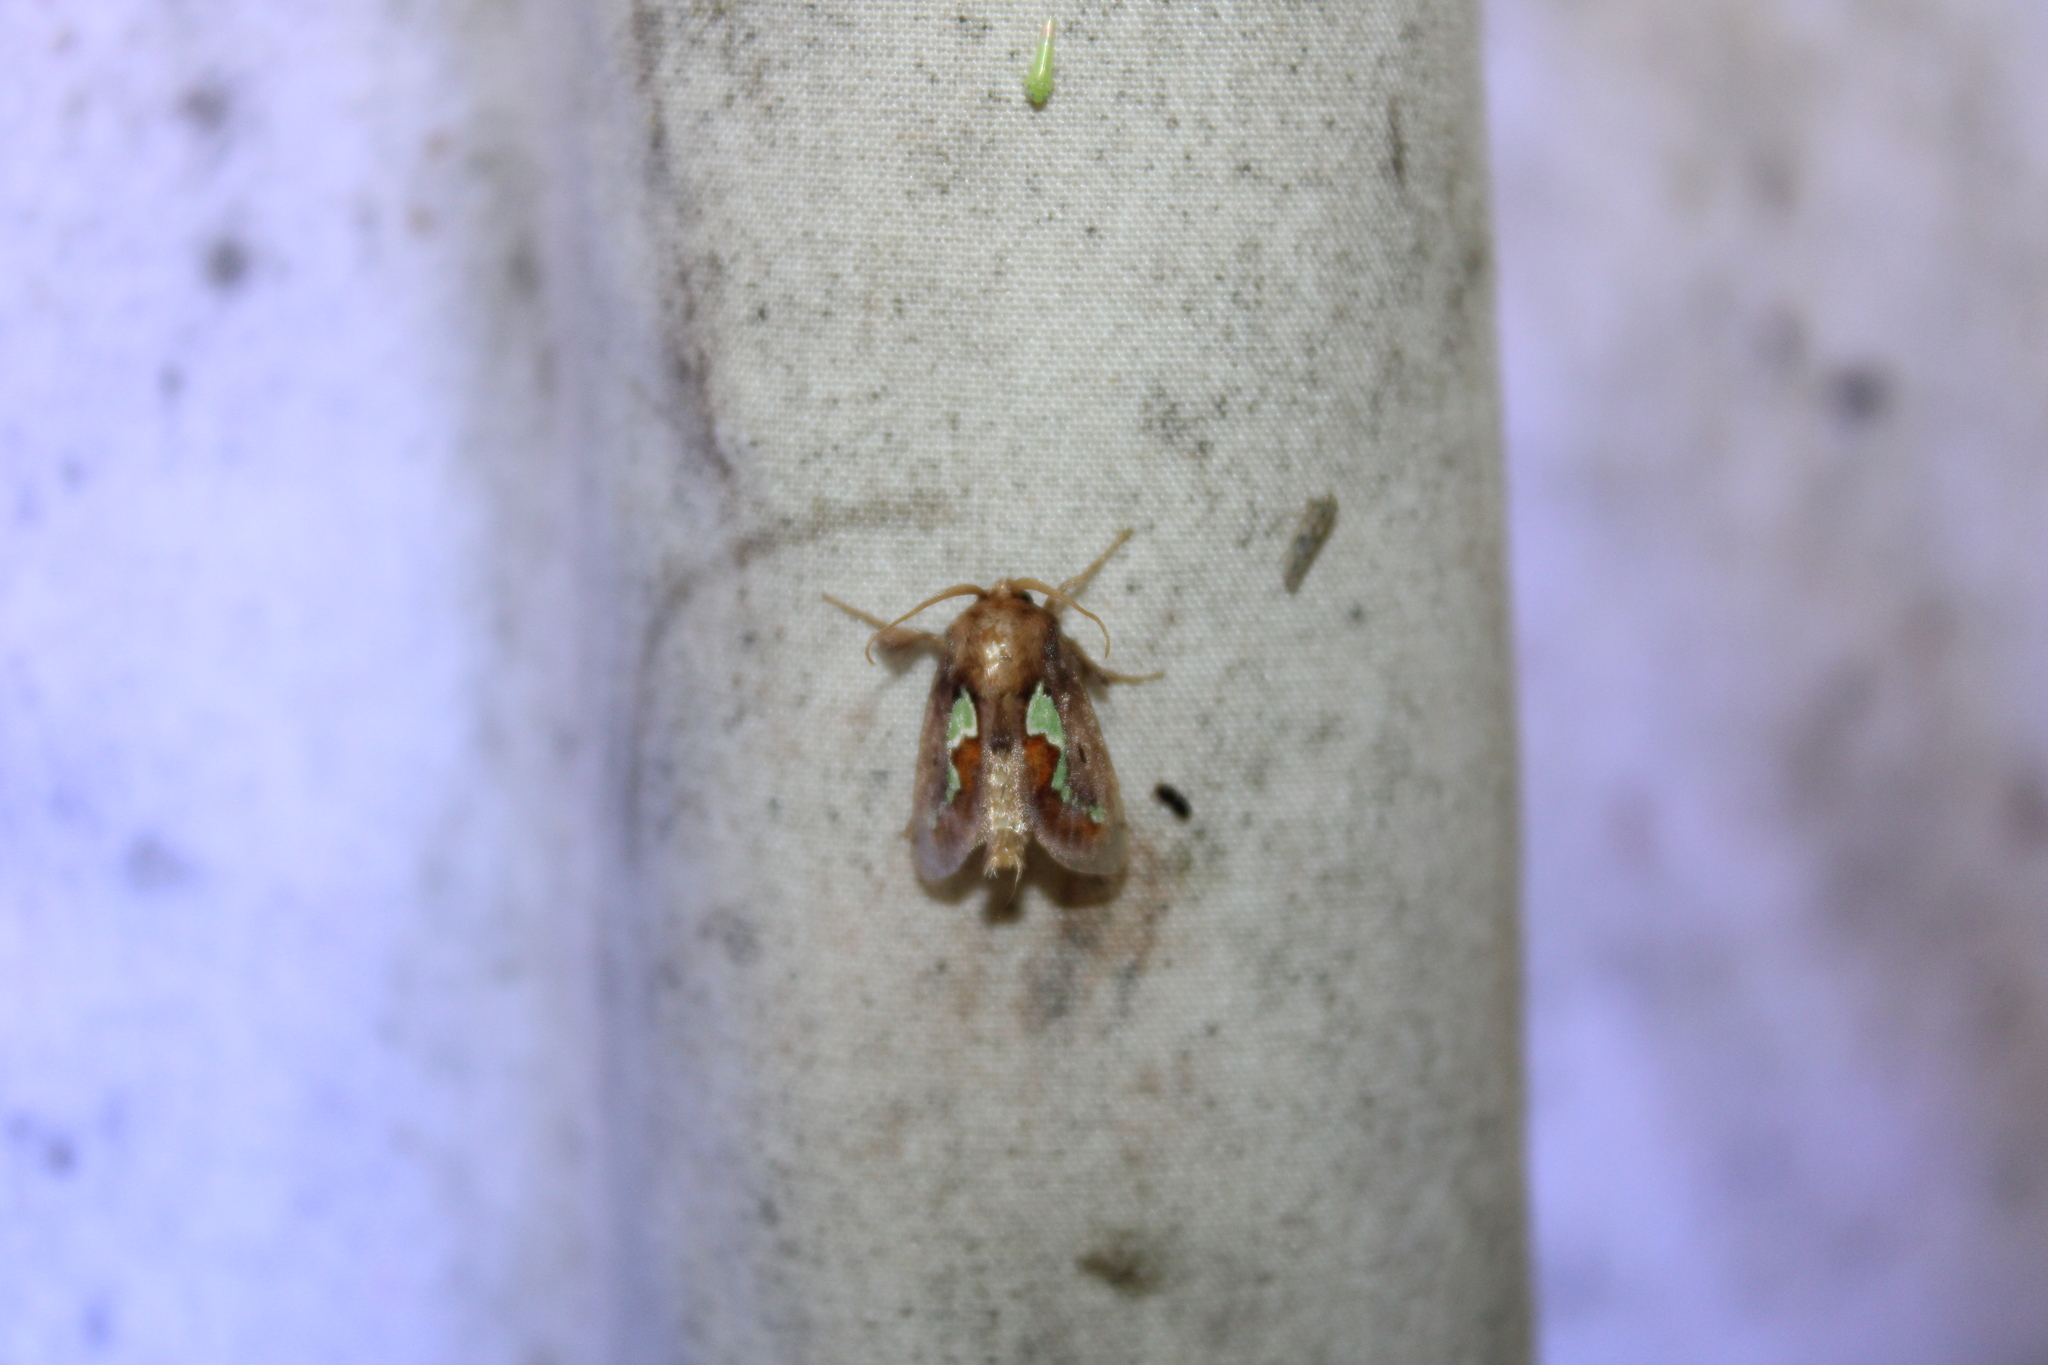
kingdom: Animalia
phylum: Arthropoda
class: Insecta
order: Lepidoptera
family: Limacodidae
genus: Euclea
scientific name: Euclea delphinii
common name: Spiny oak-slug moth
